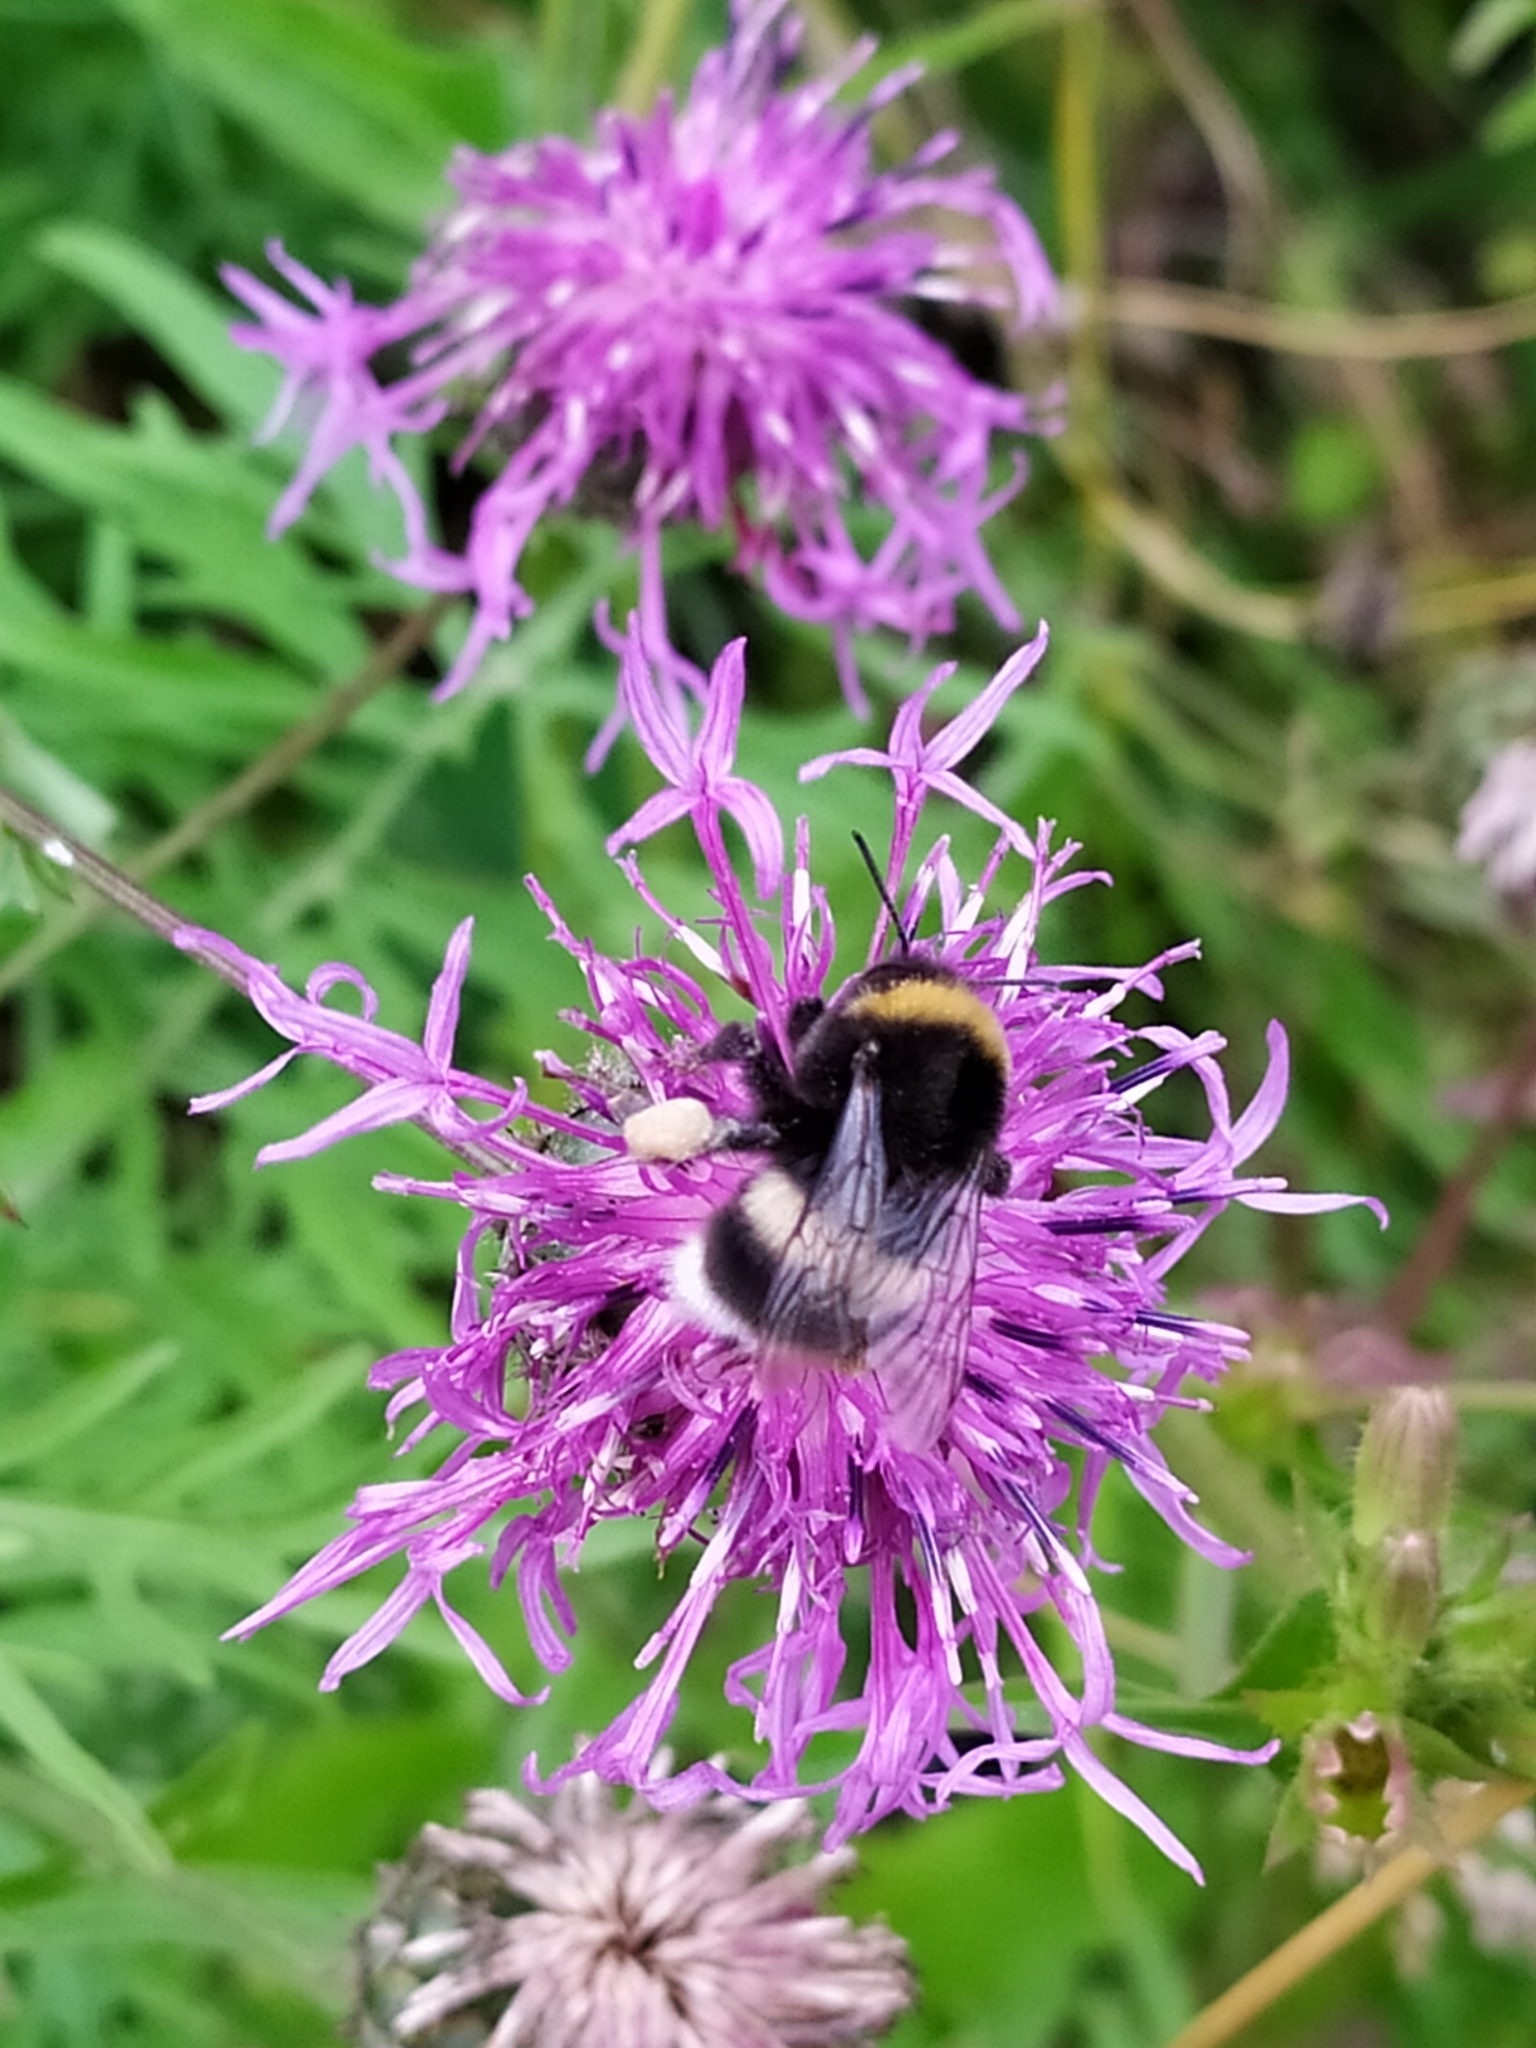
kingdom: Animalia
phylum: Arthropoda
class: Insecta
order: Hymenoptera
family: Apidae
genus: Bombus
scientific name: Bombus
